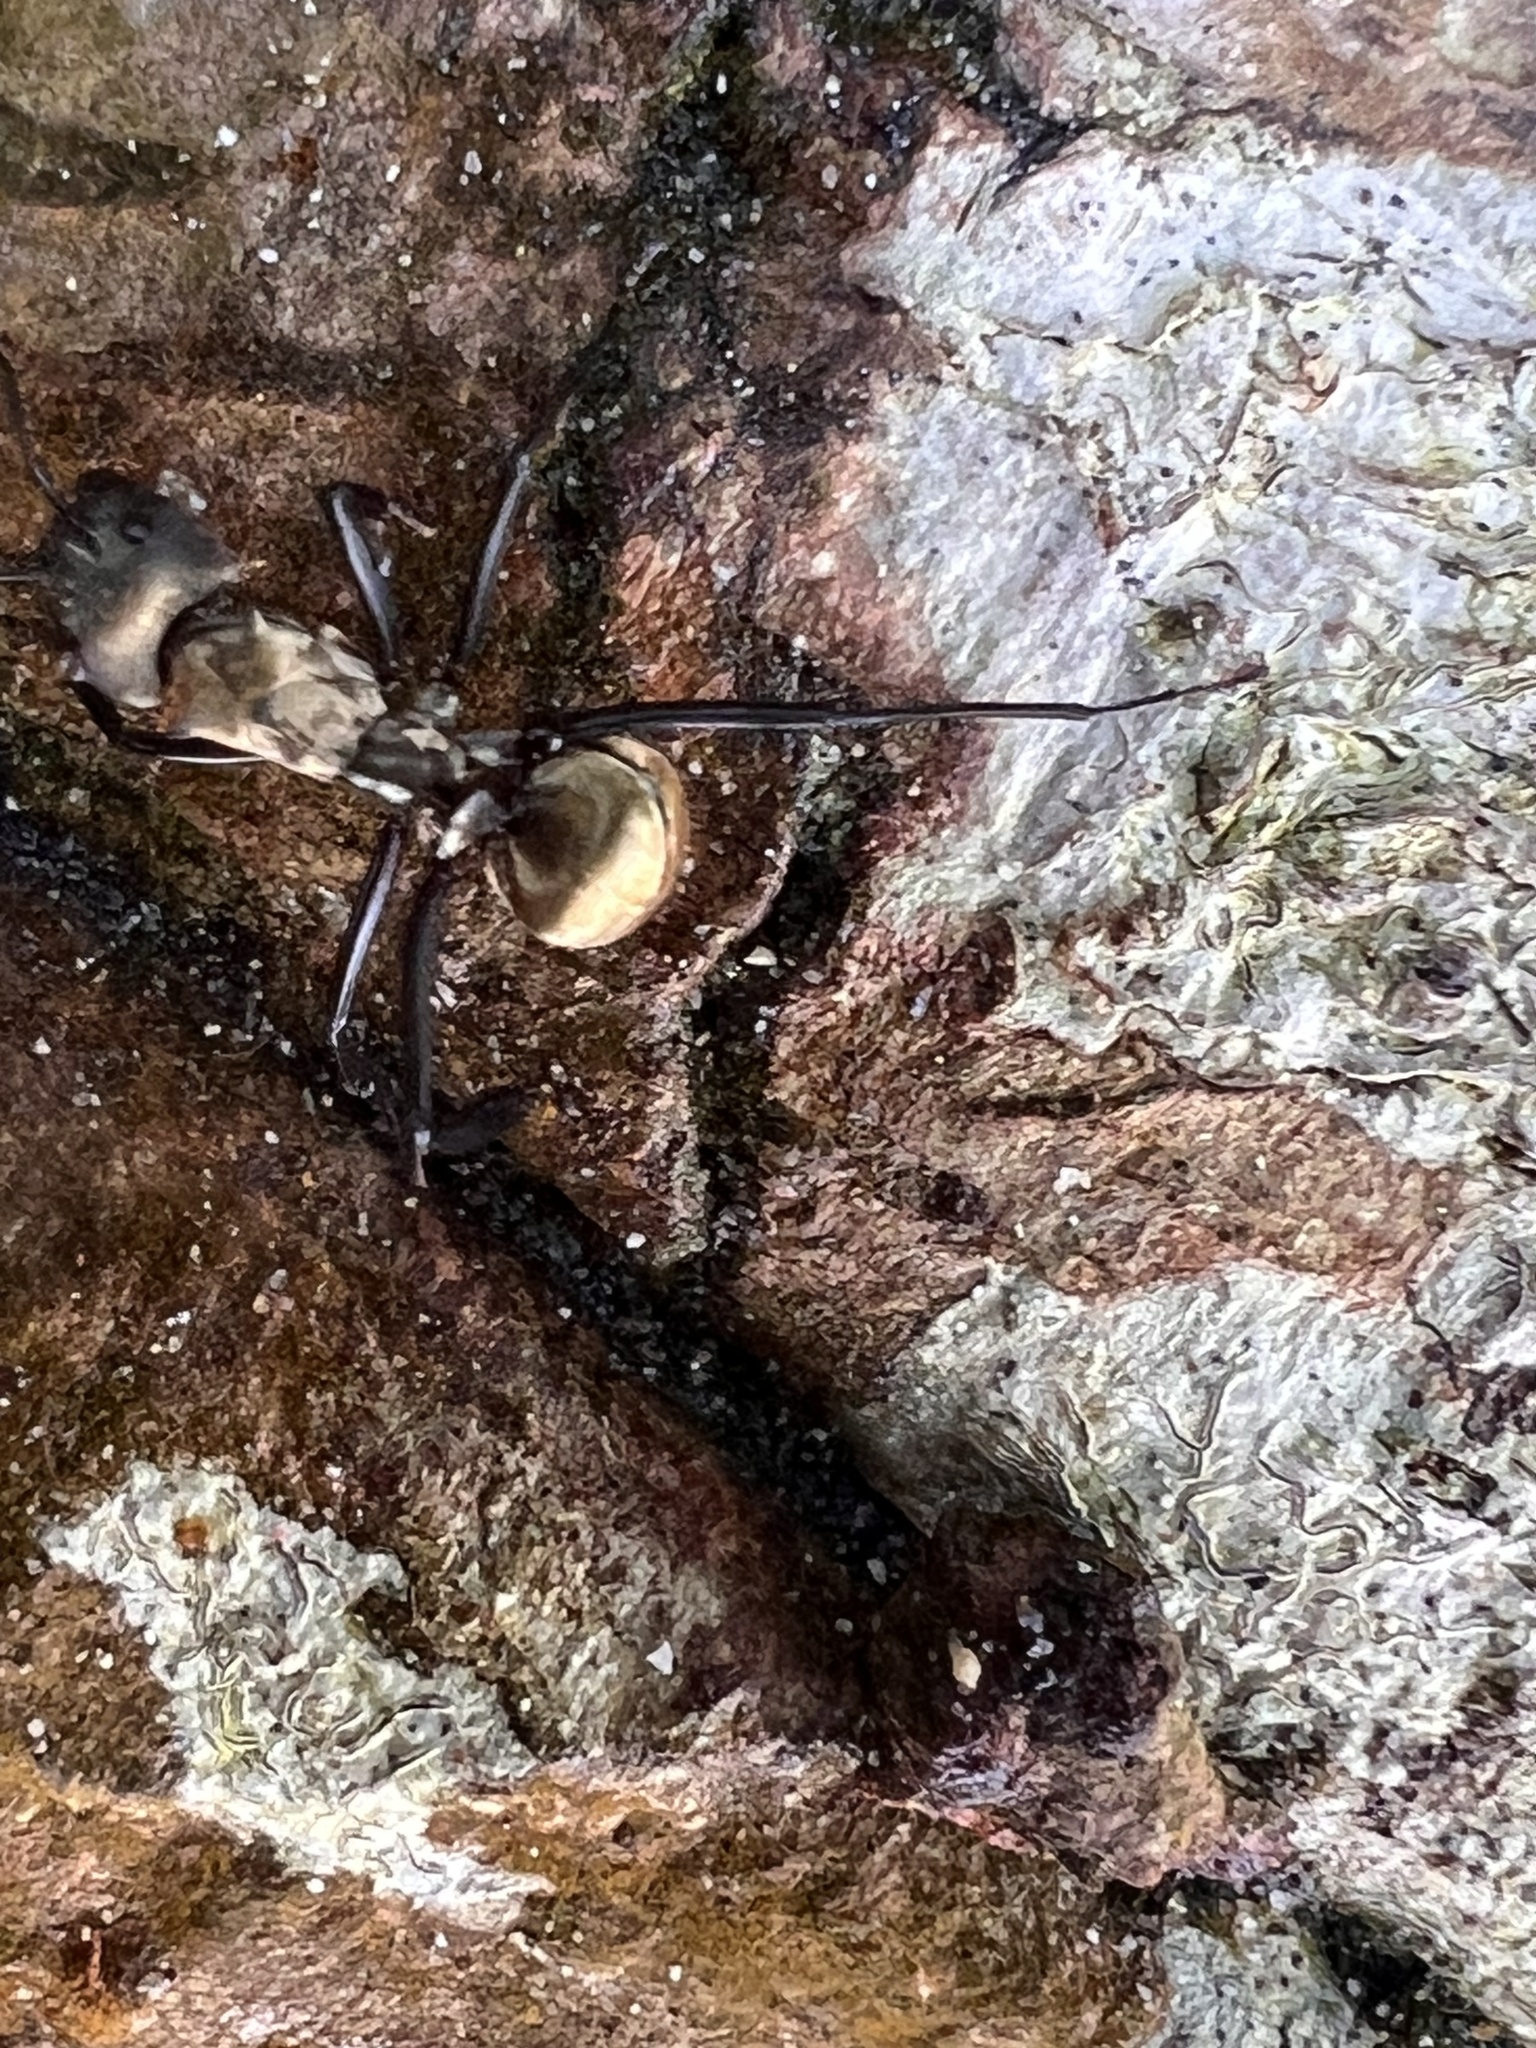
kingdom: Animalia
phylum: Arthropoda
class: Insecta
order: Hymenoptera
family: Formicidae
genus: Camponotus
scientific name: Camponotus sericeiventris
